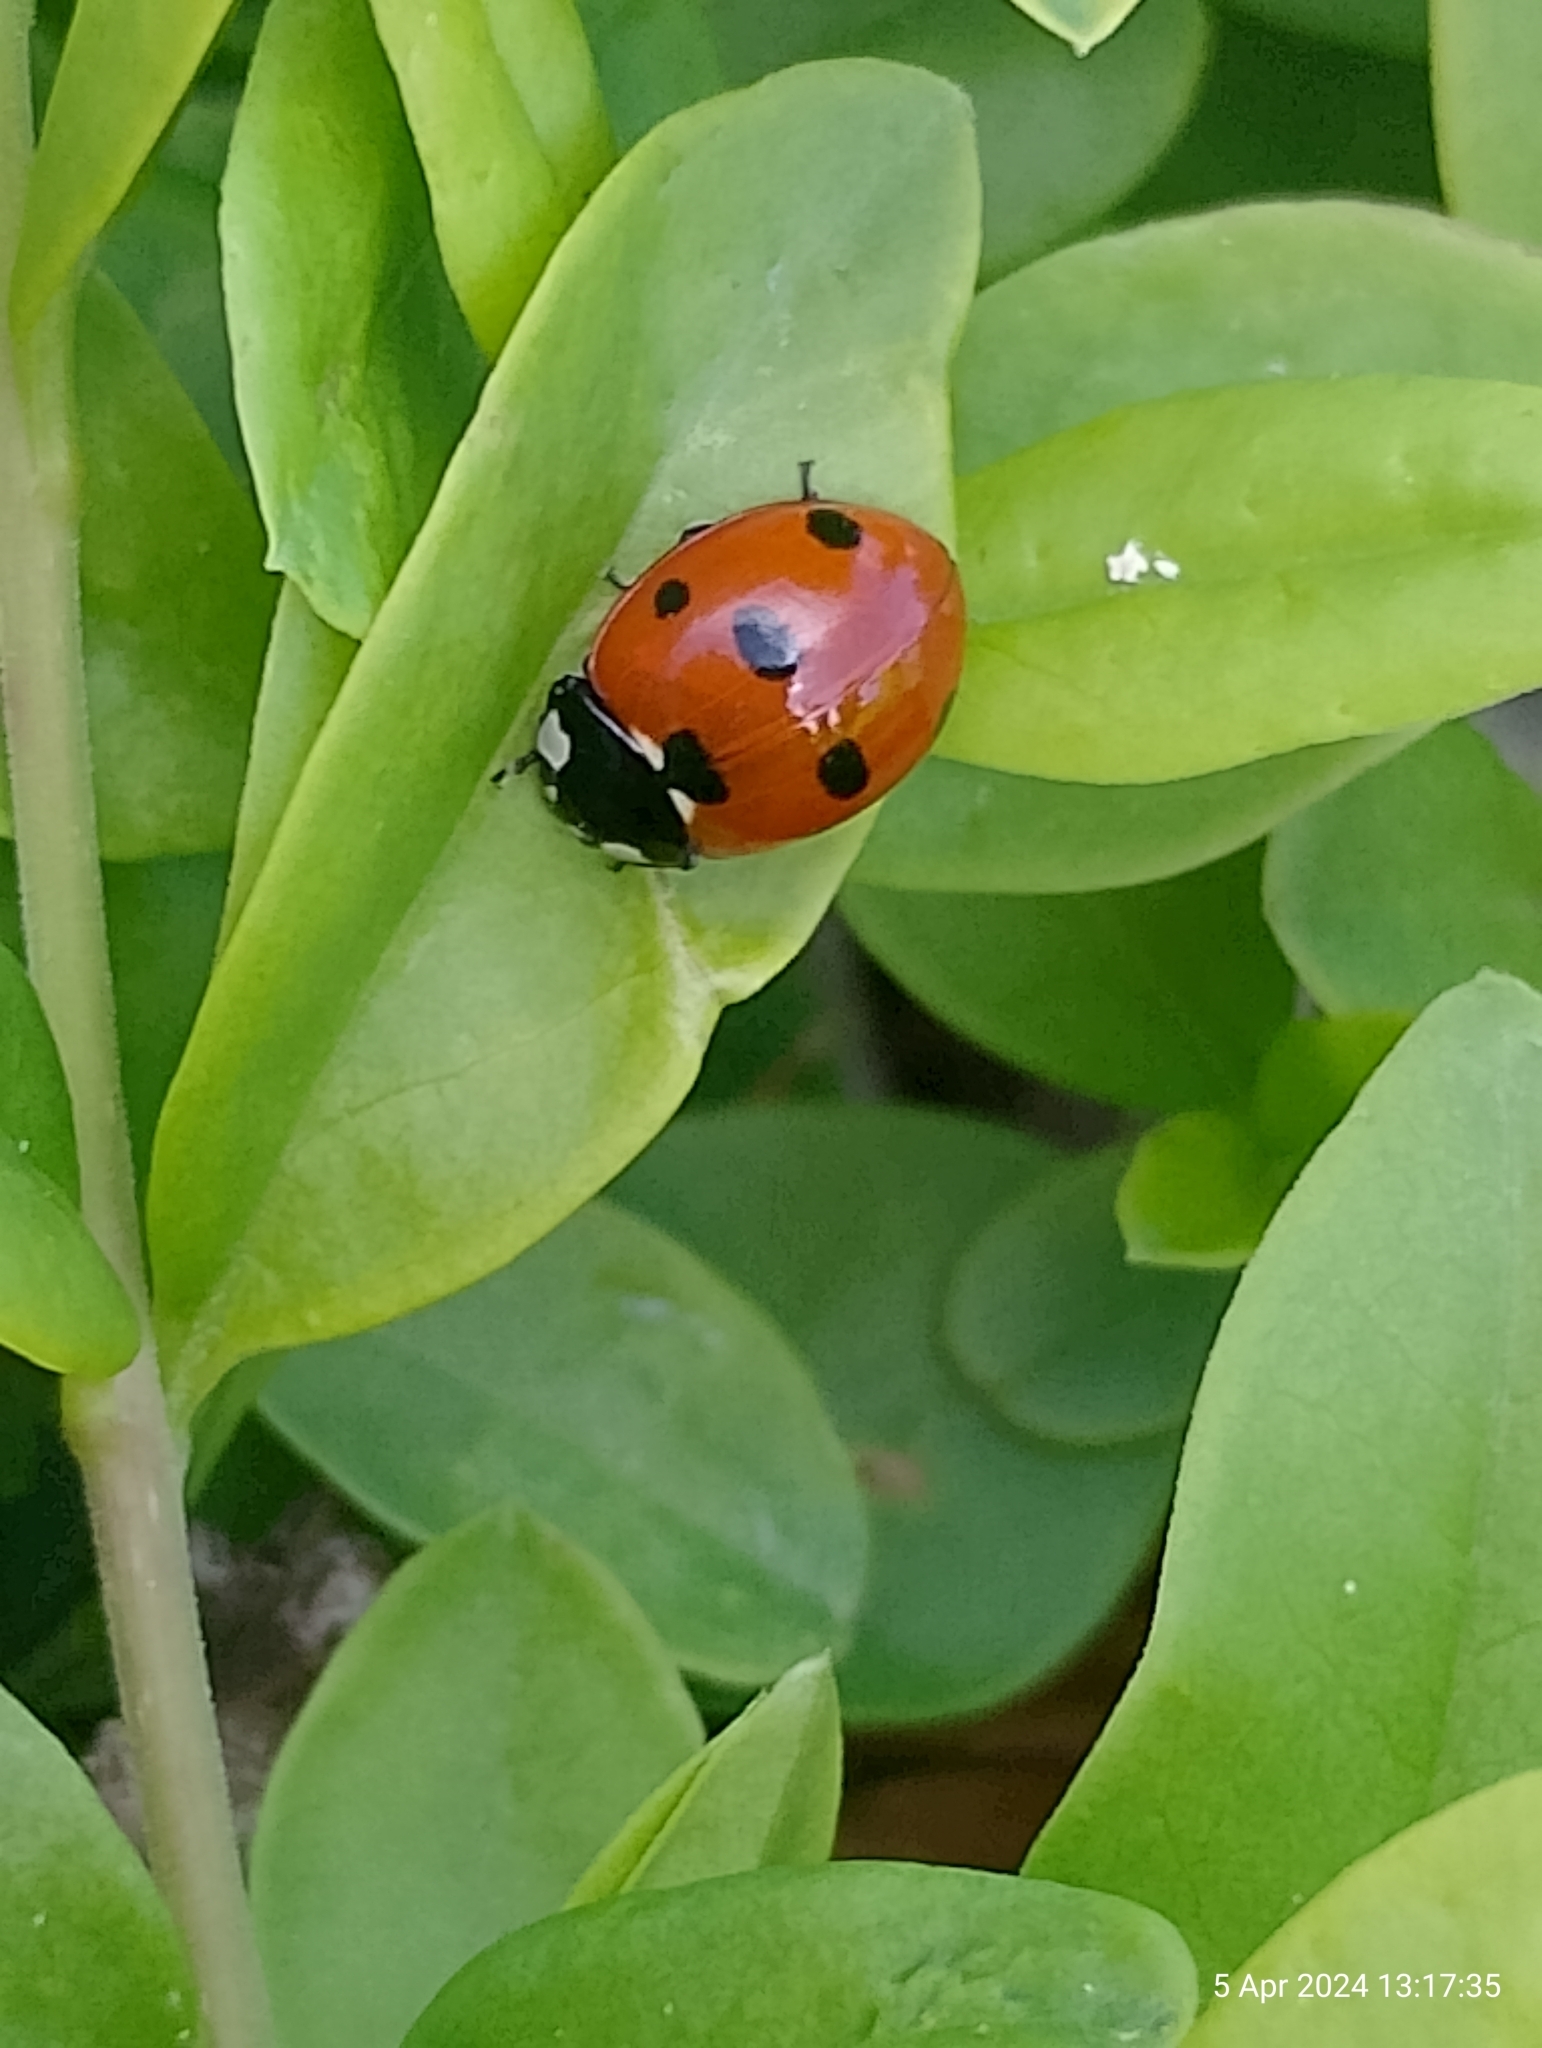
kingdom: Animalia
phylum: Arthropoda
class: Insecta
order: Coleoptera
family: Coccinellidae
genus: Coccinella
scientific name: Coccinella septempunctata
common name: Sevenspotted lady beetle
